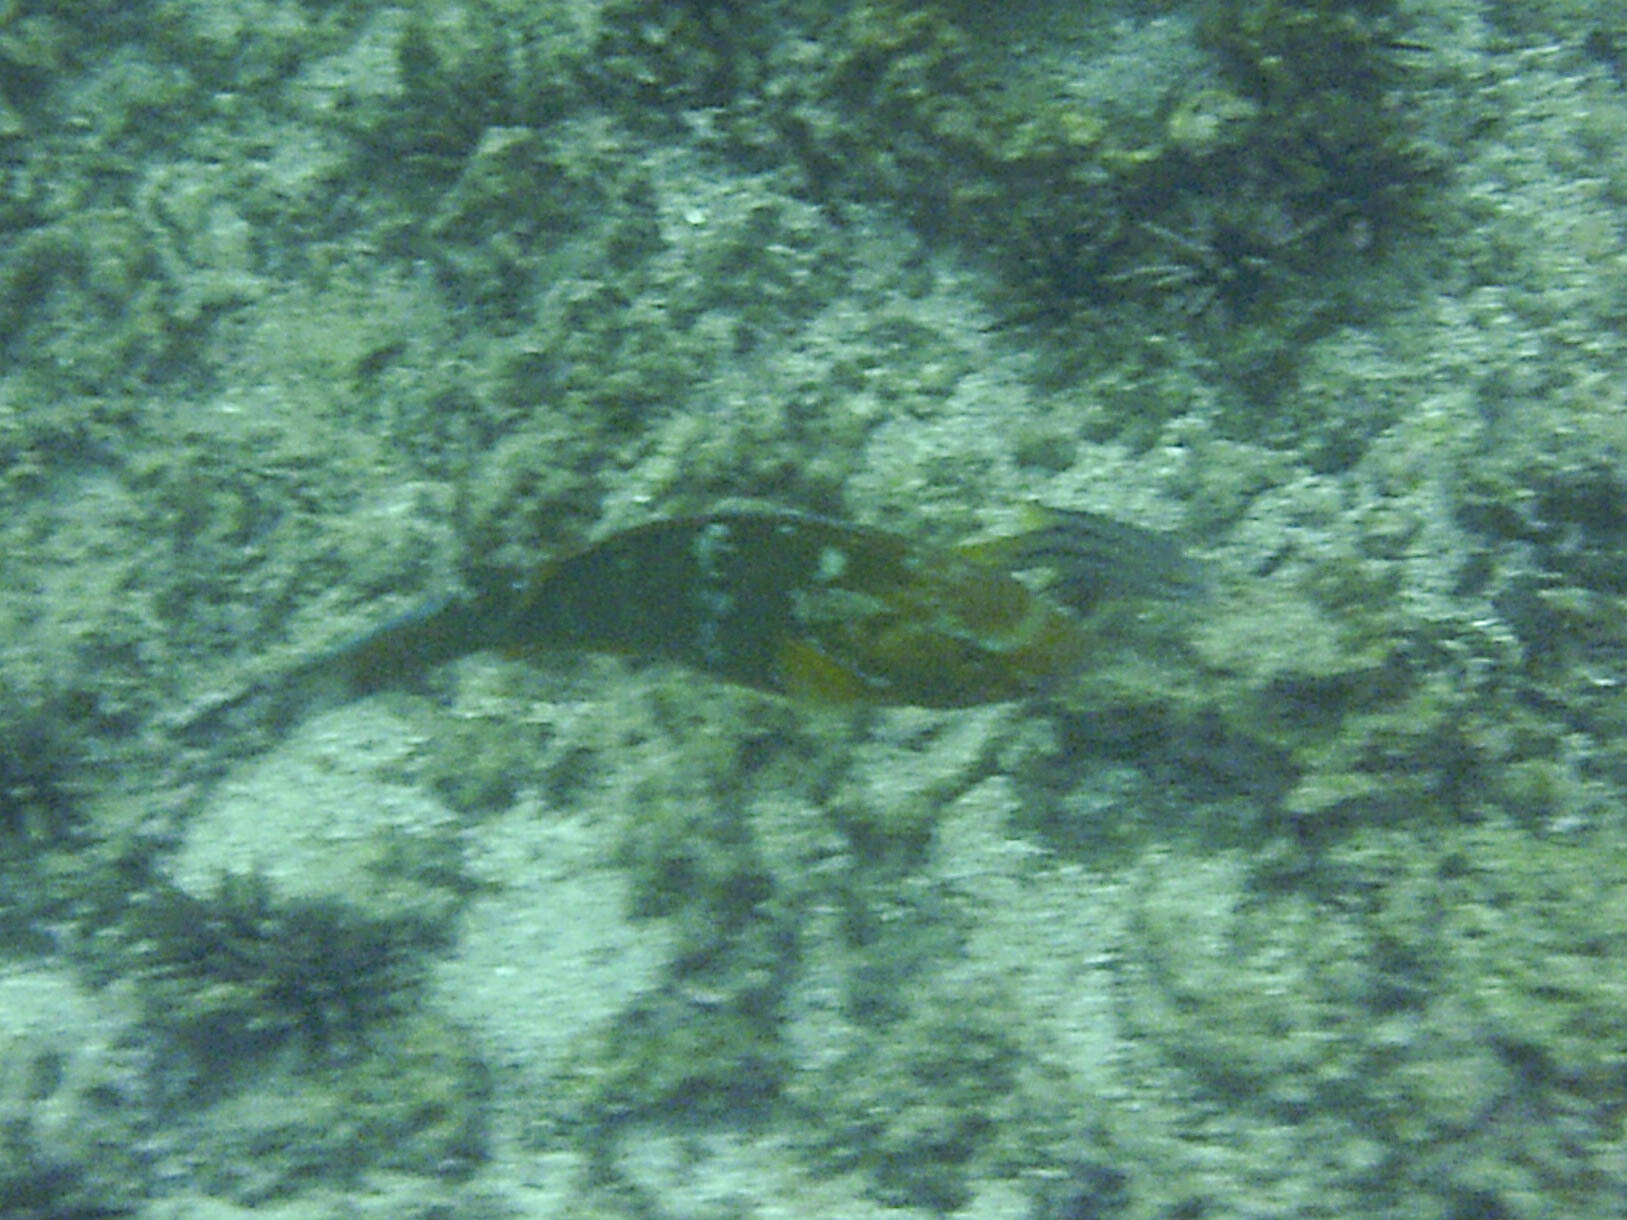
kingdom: Animalia
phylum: Chordata
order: Perciformes
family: Scaridae
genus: Scarus
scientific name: Scarus ghobban
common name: Blue-barred parrotfish
